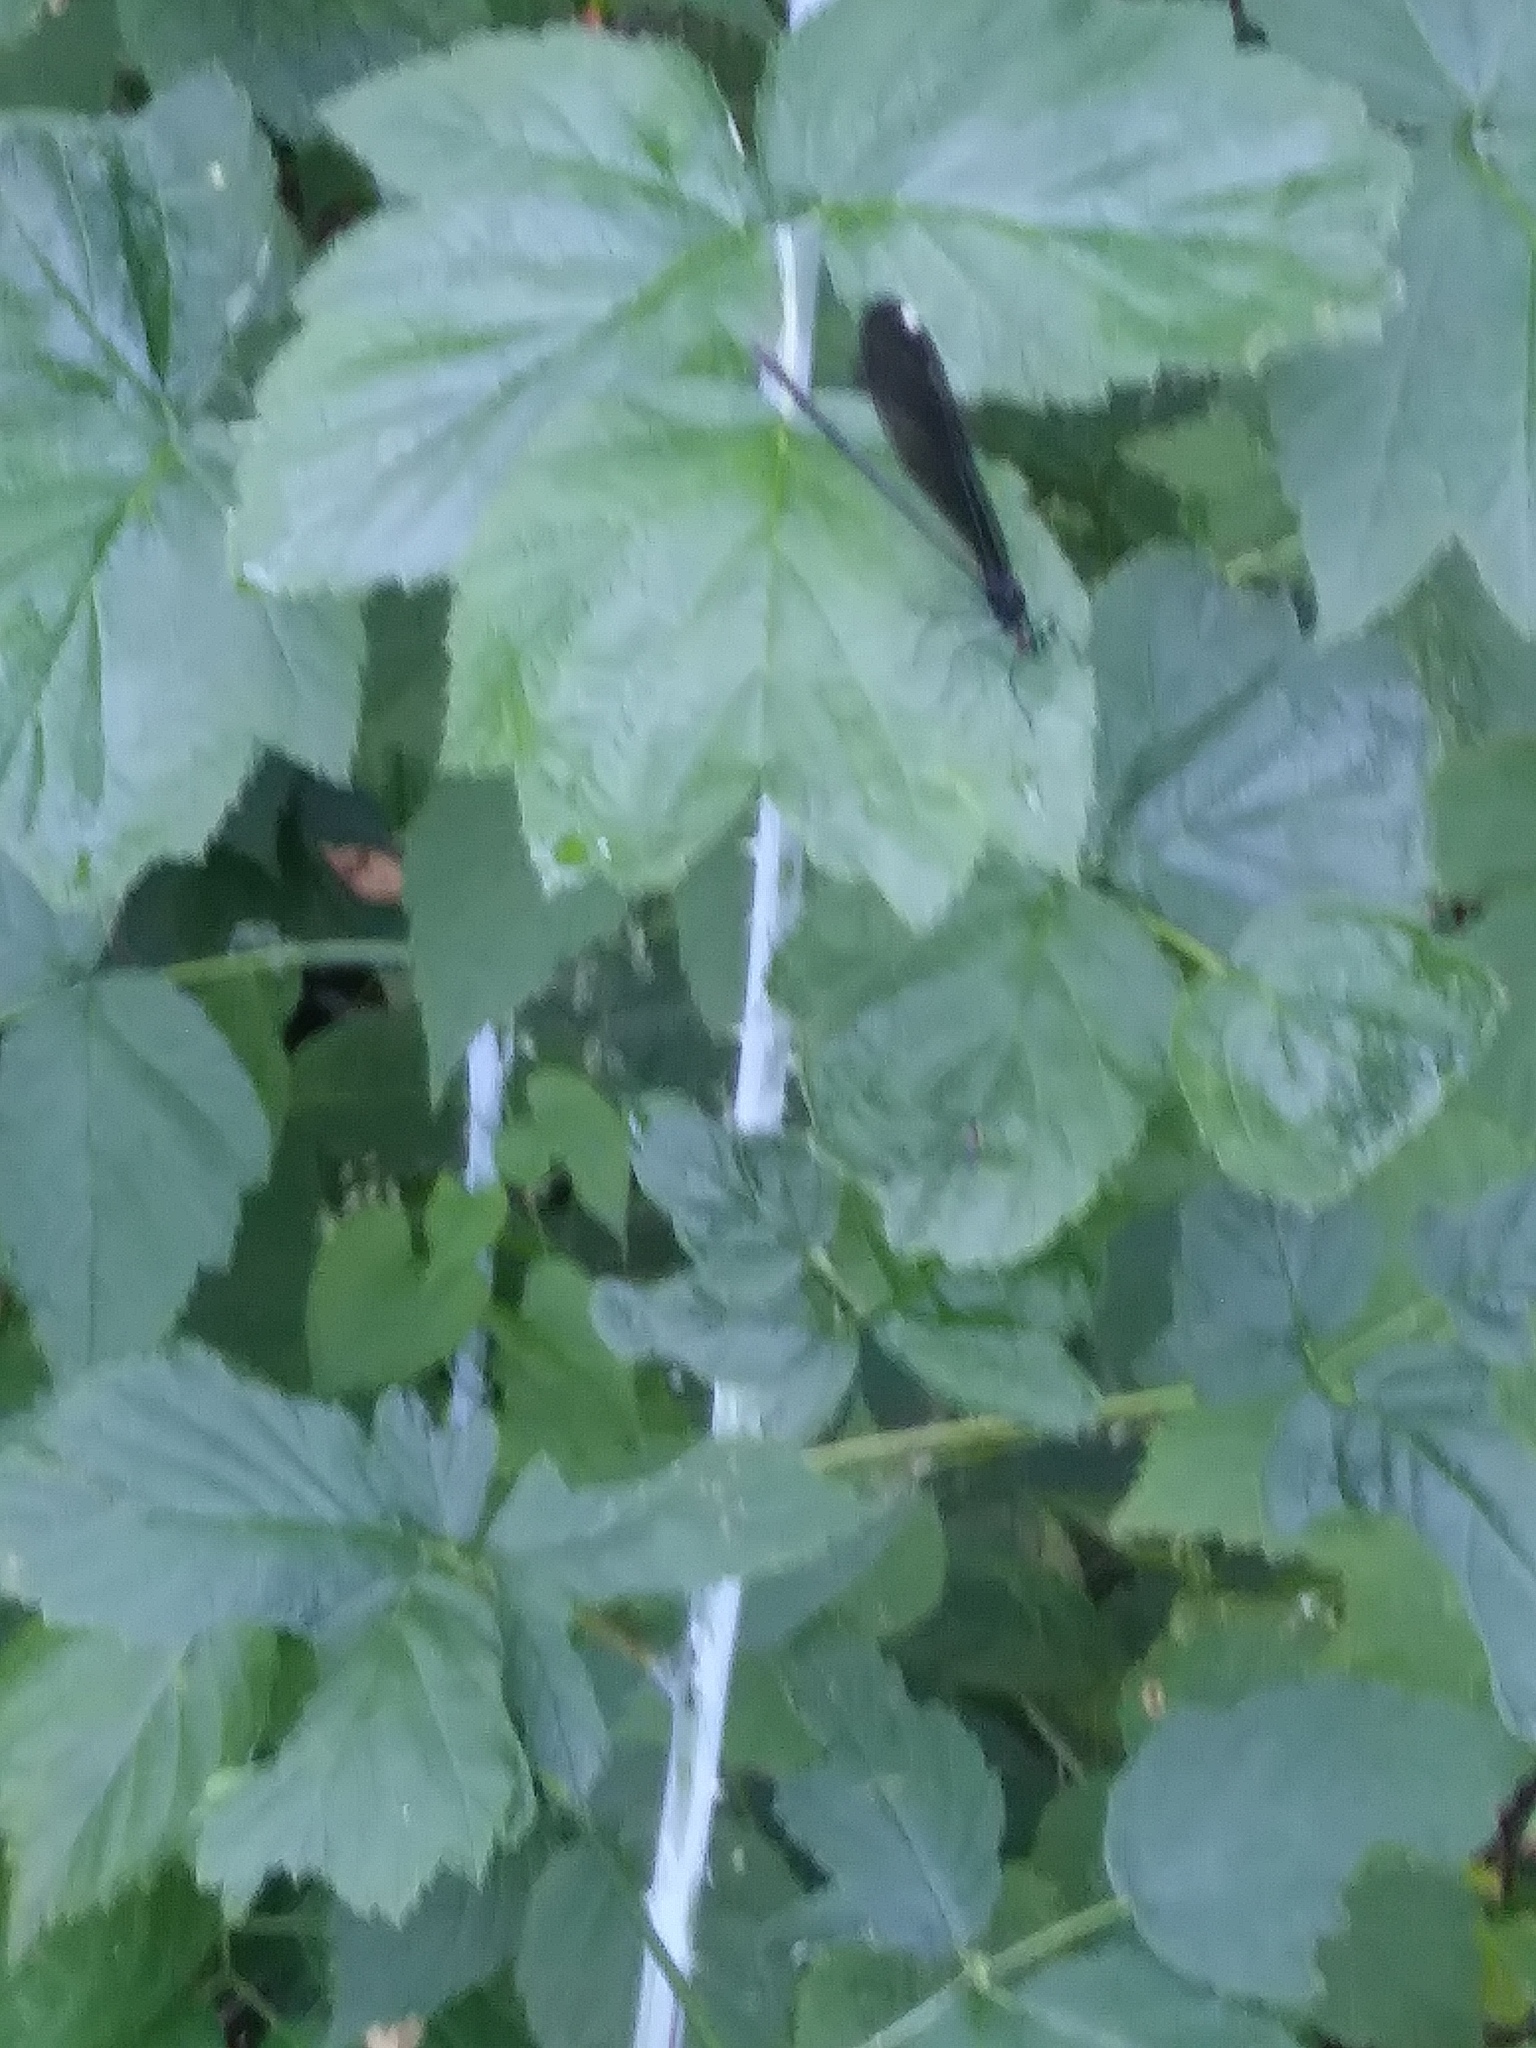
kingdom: Animalia
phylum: Arthropoda
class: Insecta
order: Odonata
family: Calopterygidae
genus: Calopteryx
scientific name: Calopteryx maculata
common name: Ebony jewelwing
